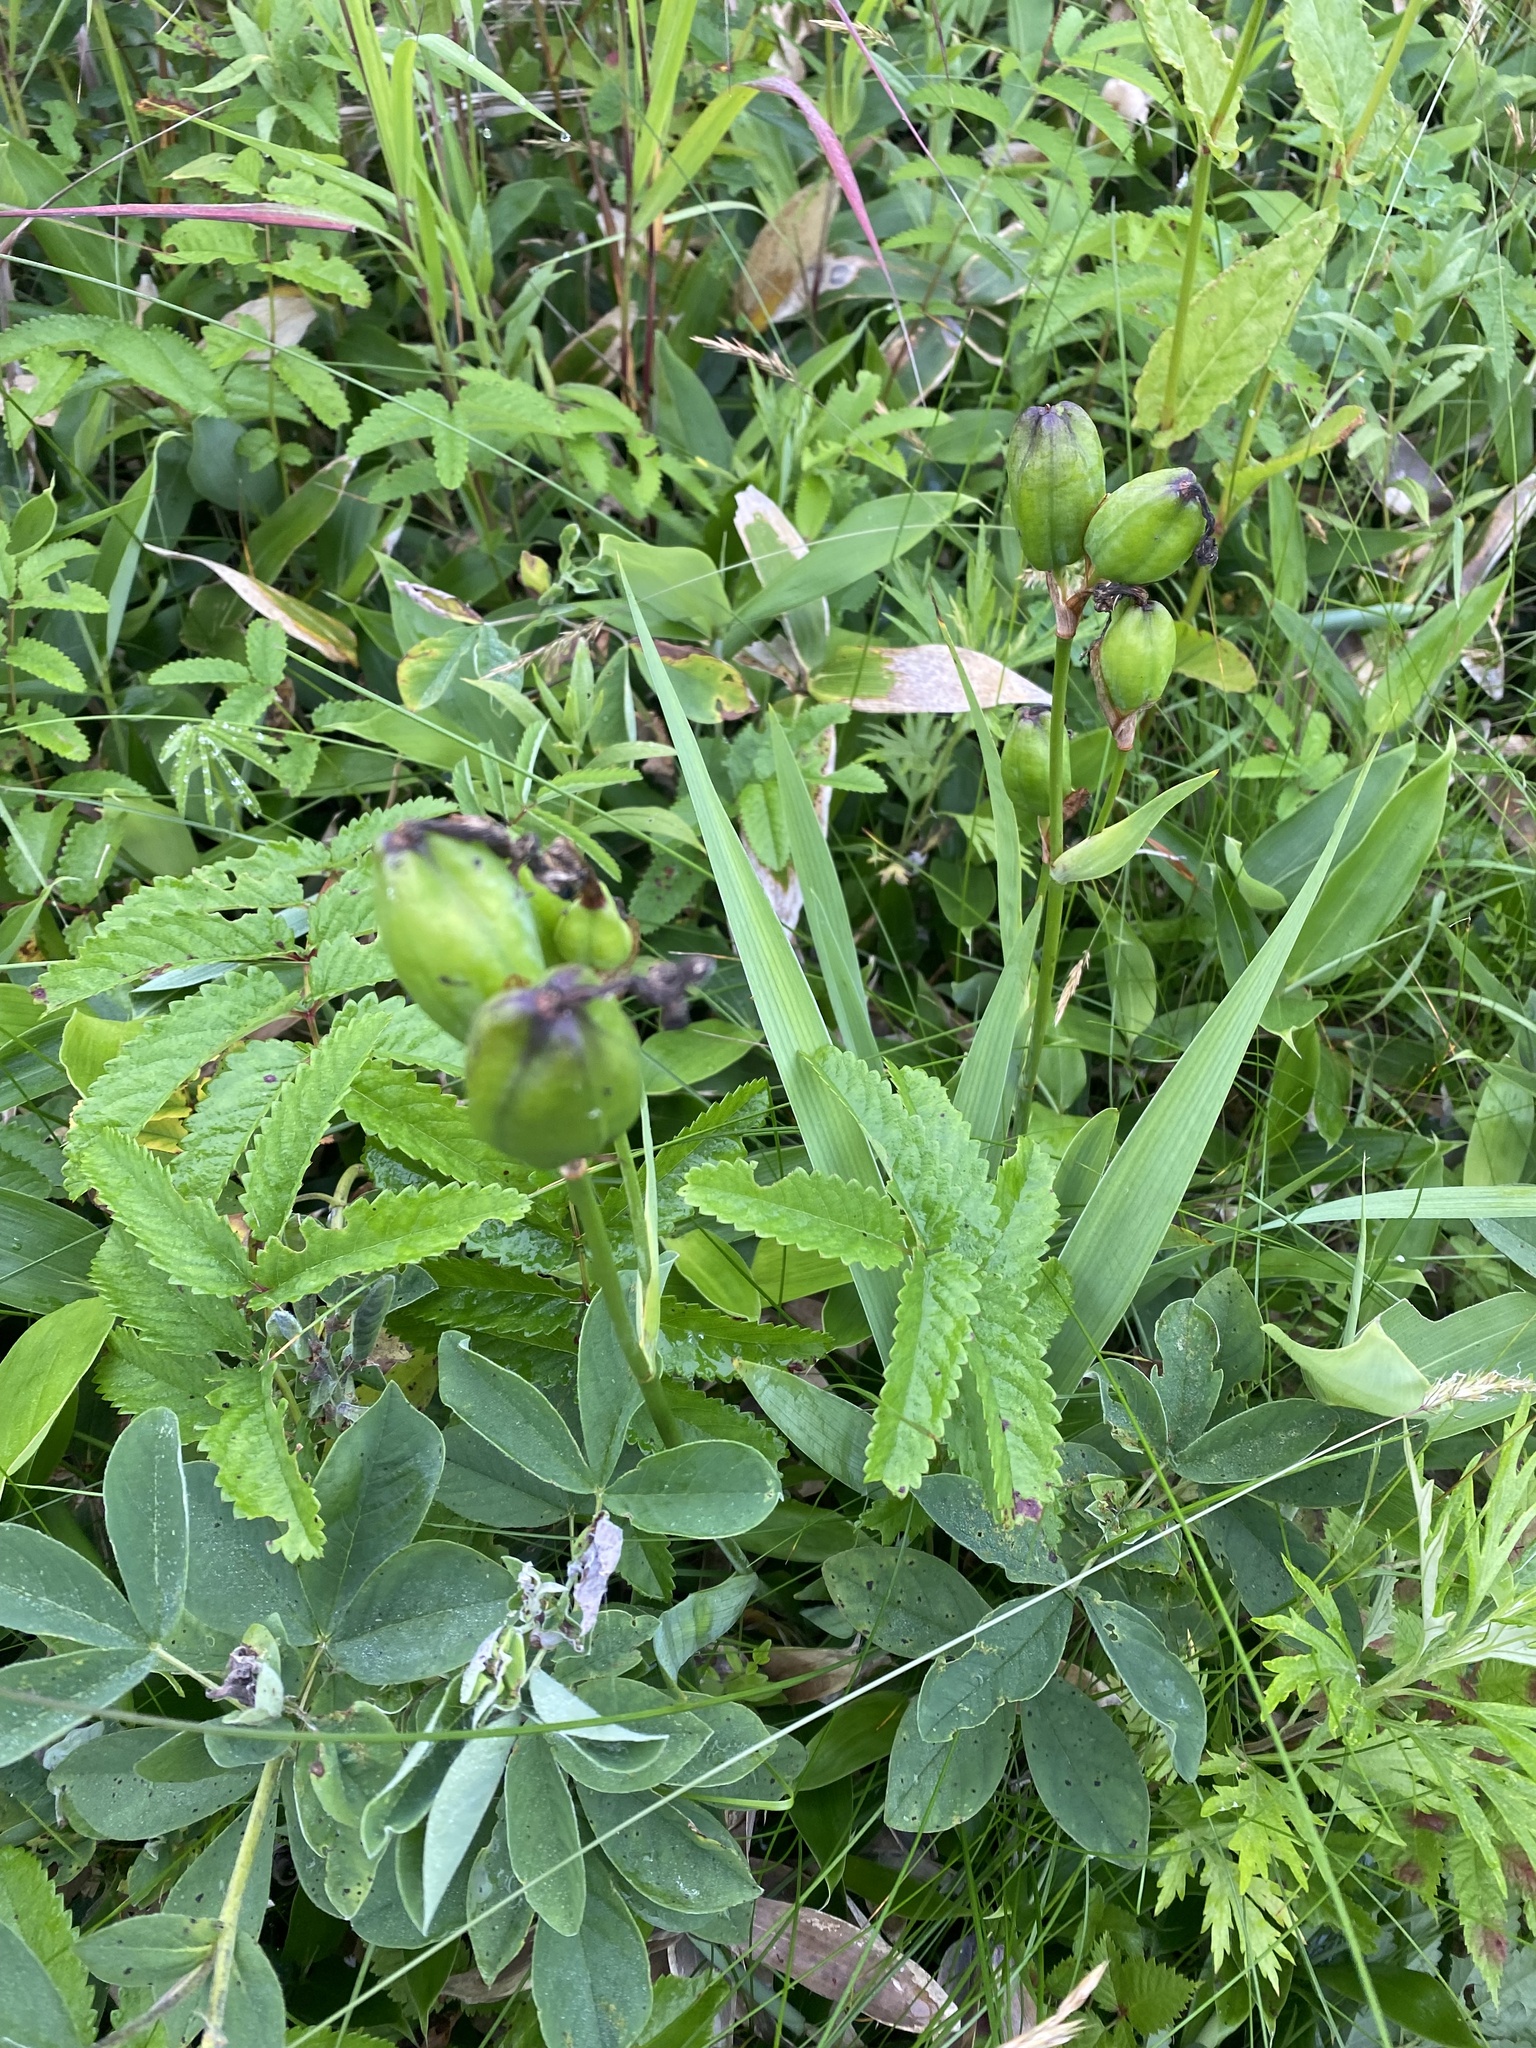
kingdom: Plantae
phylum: Tracheophyta
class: Liliopsida
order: Asparagales
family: Iridaceae
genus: Iris
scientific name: Iris setosa
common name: Arctic blue flag
